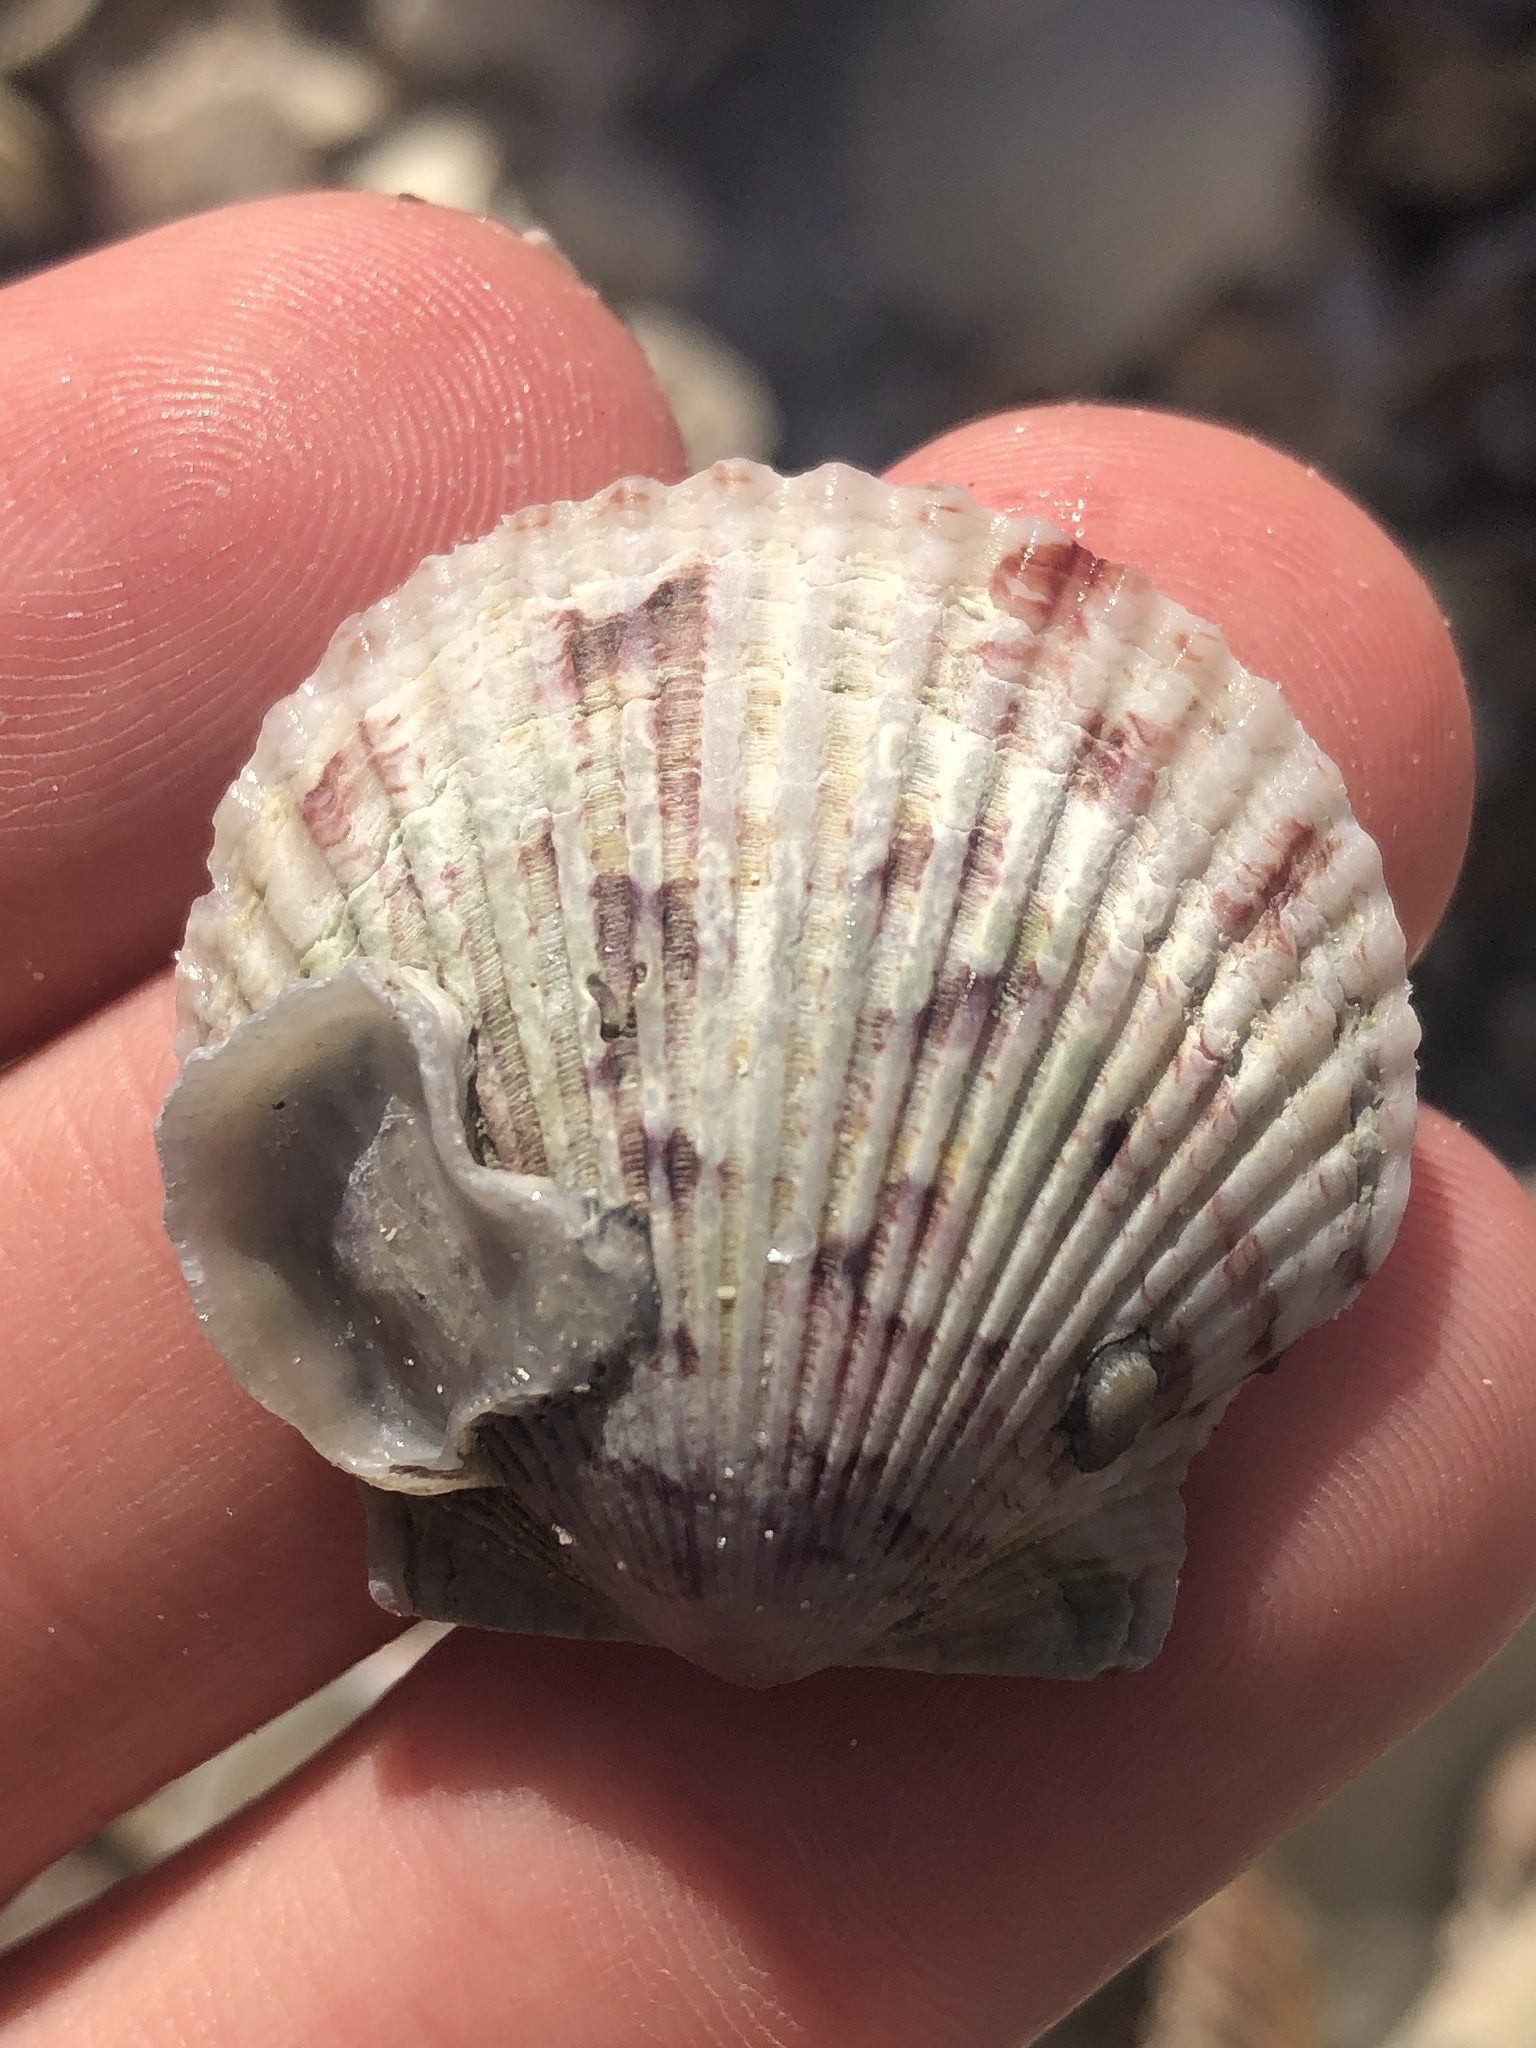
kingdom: Animalia
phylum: Mollusca
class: Bivalvia
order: Pectinida
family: Pectinidae
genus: Argopecten
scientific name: Argopecten gibbus
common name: Atlantic calico scallop
